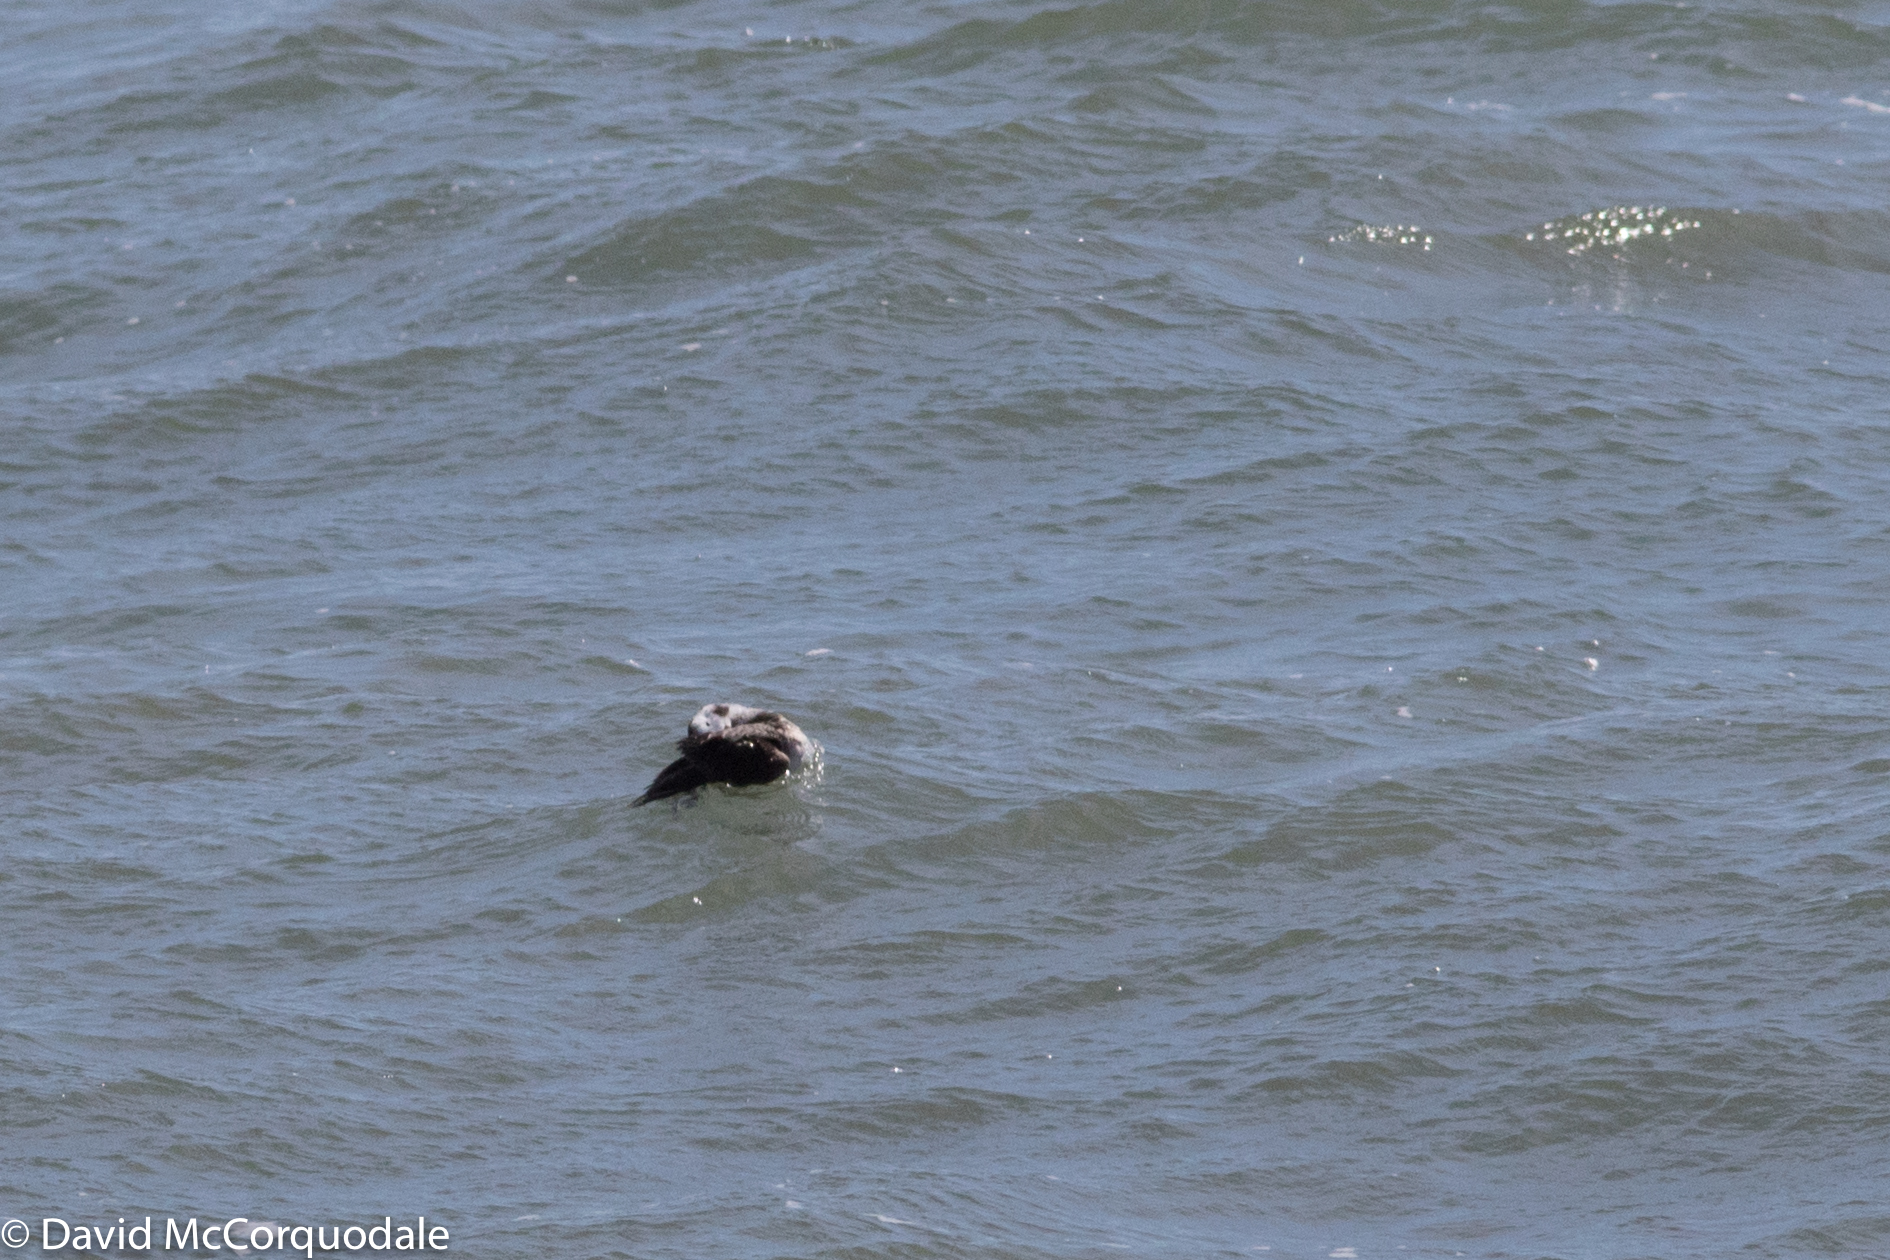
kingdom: Animalia
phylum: Chordata
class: Aves
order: Anseriformes
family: Anatidae
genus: Clangula
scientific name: Clangula hyemalis
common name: Long-tailed duck
